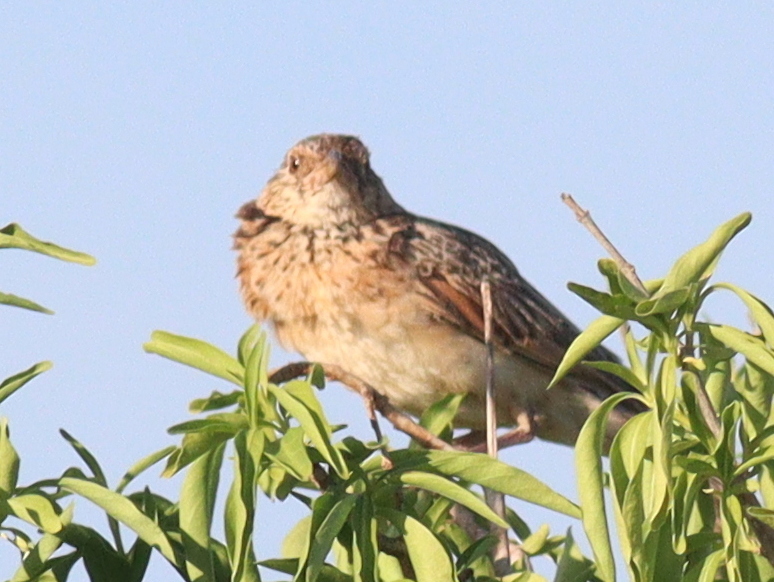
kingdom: Animalia
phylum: Chordata
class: Aves
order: Passeriformes
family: Alaudidae
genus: Mirafra
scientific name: Mirafra hypermetra
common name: Red-winged lark
